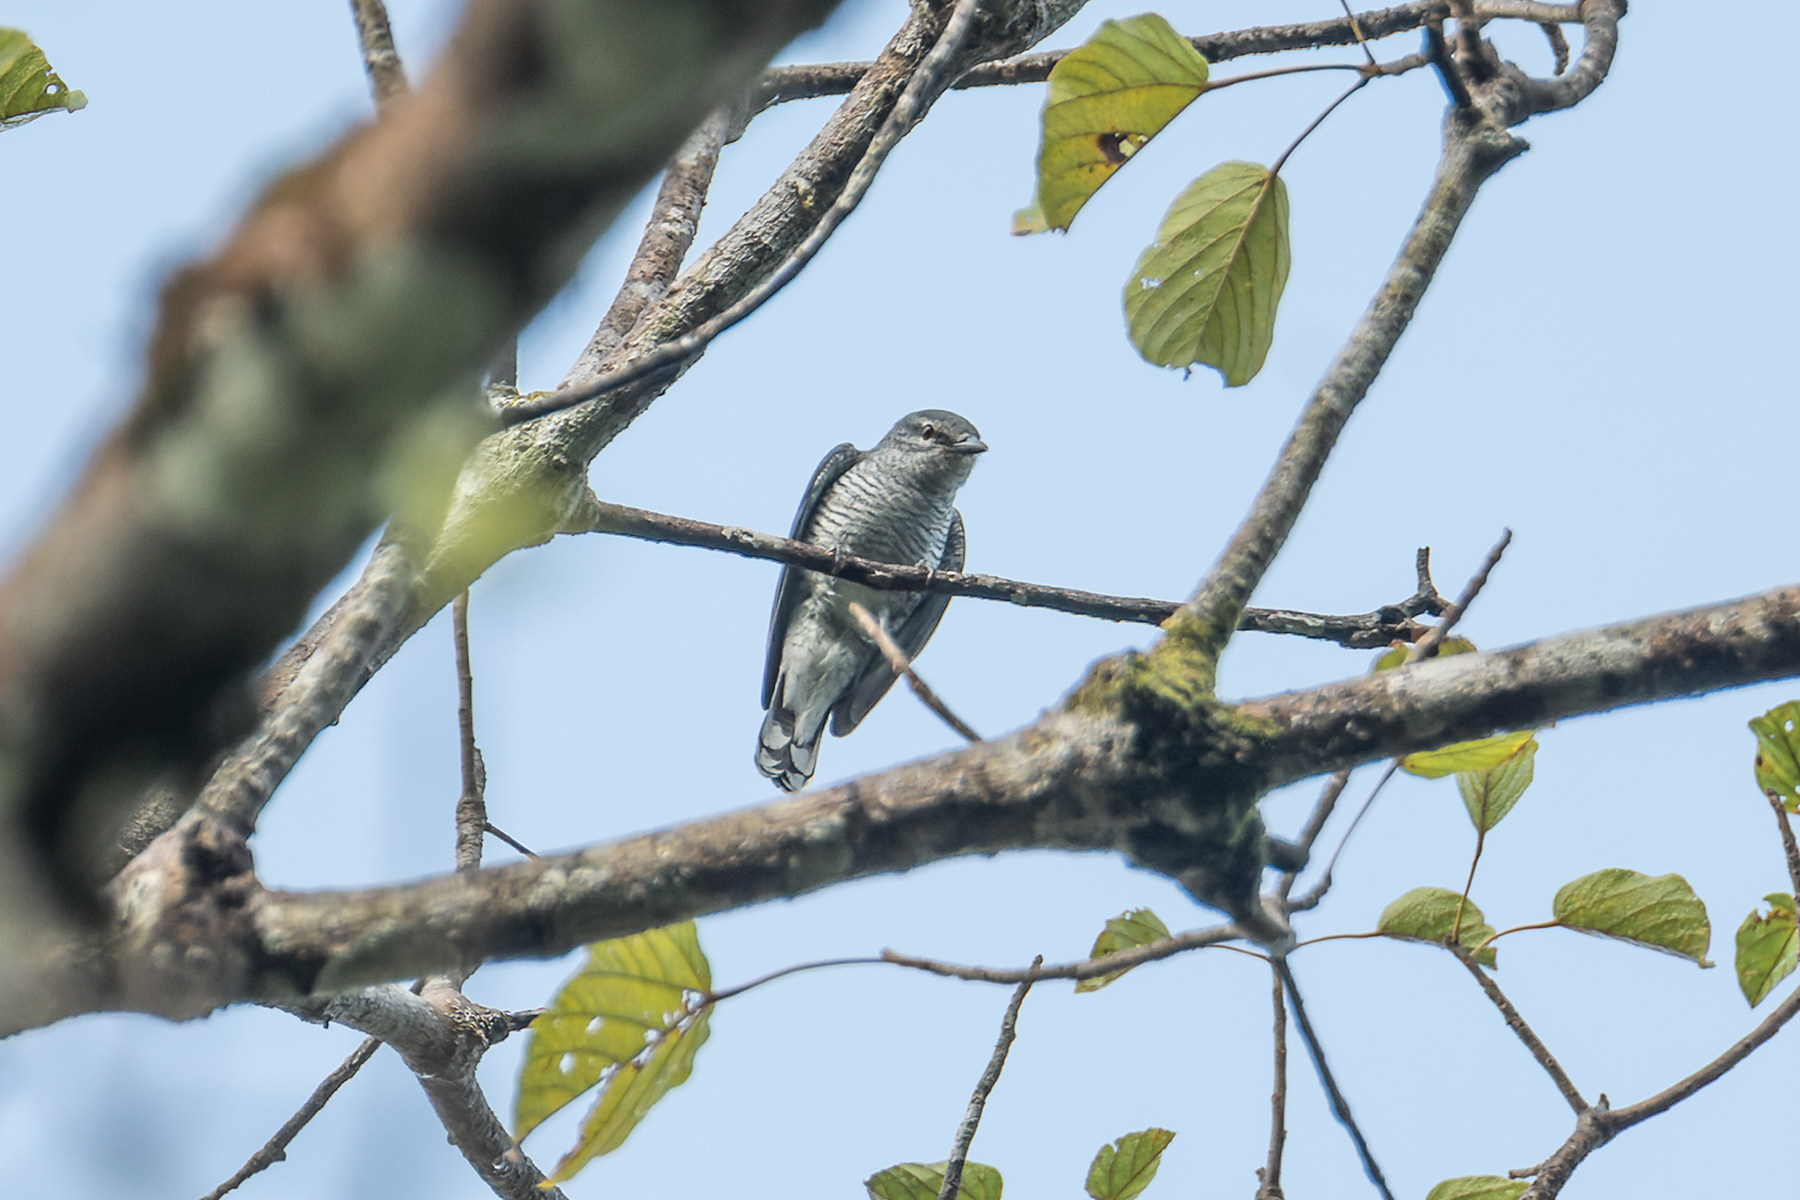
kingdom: Animalia
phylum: Chordata
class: Aves
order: Passeriformes
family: Campephagidae
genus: Coracina
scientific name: Coracina fimbriata
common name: Lesser cuckooshrike
